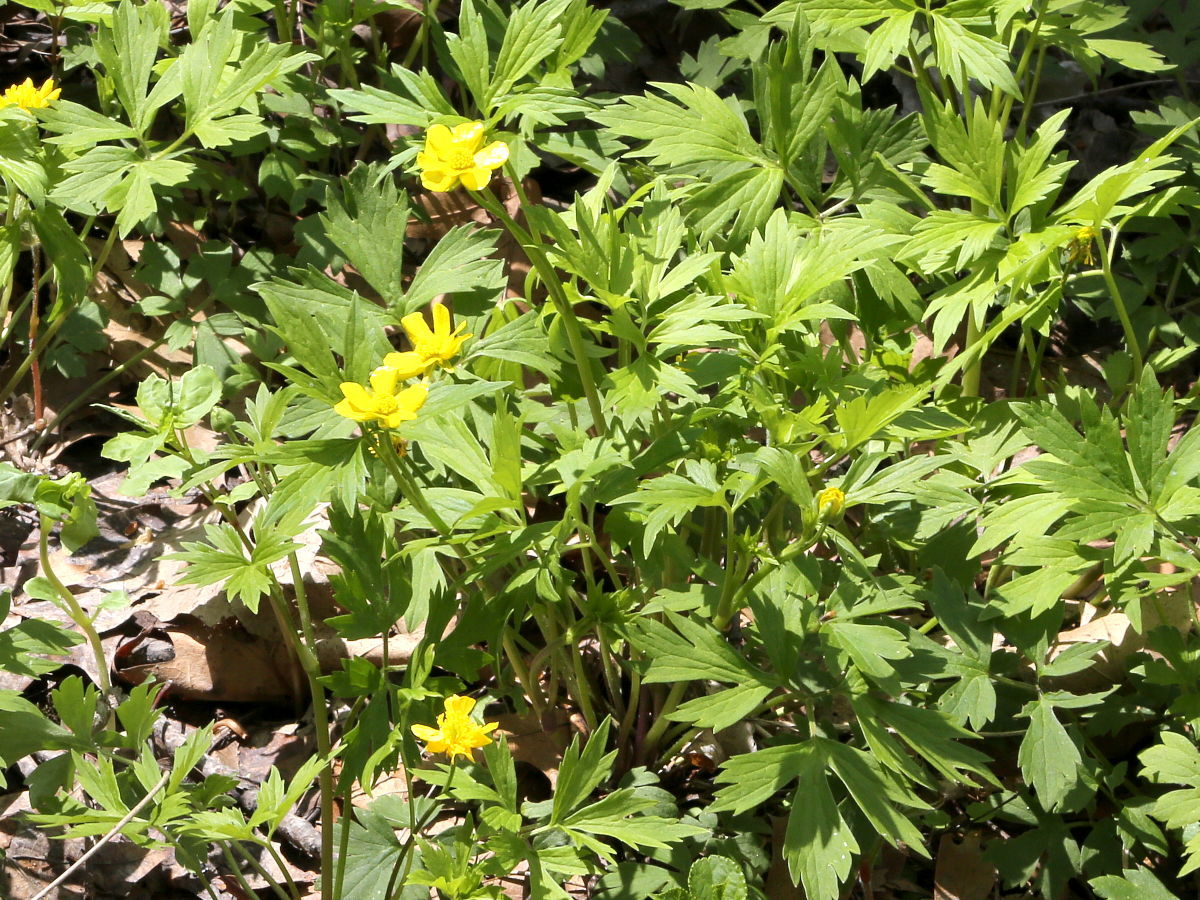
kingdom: Plantae
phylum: Tracheophyta
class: Magnoliopsida
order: Ranunculales
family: Ranunculaceae
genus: Ranunculus
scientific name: Ranunculus hispidus
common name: Bristly buttercup
